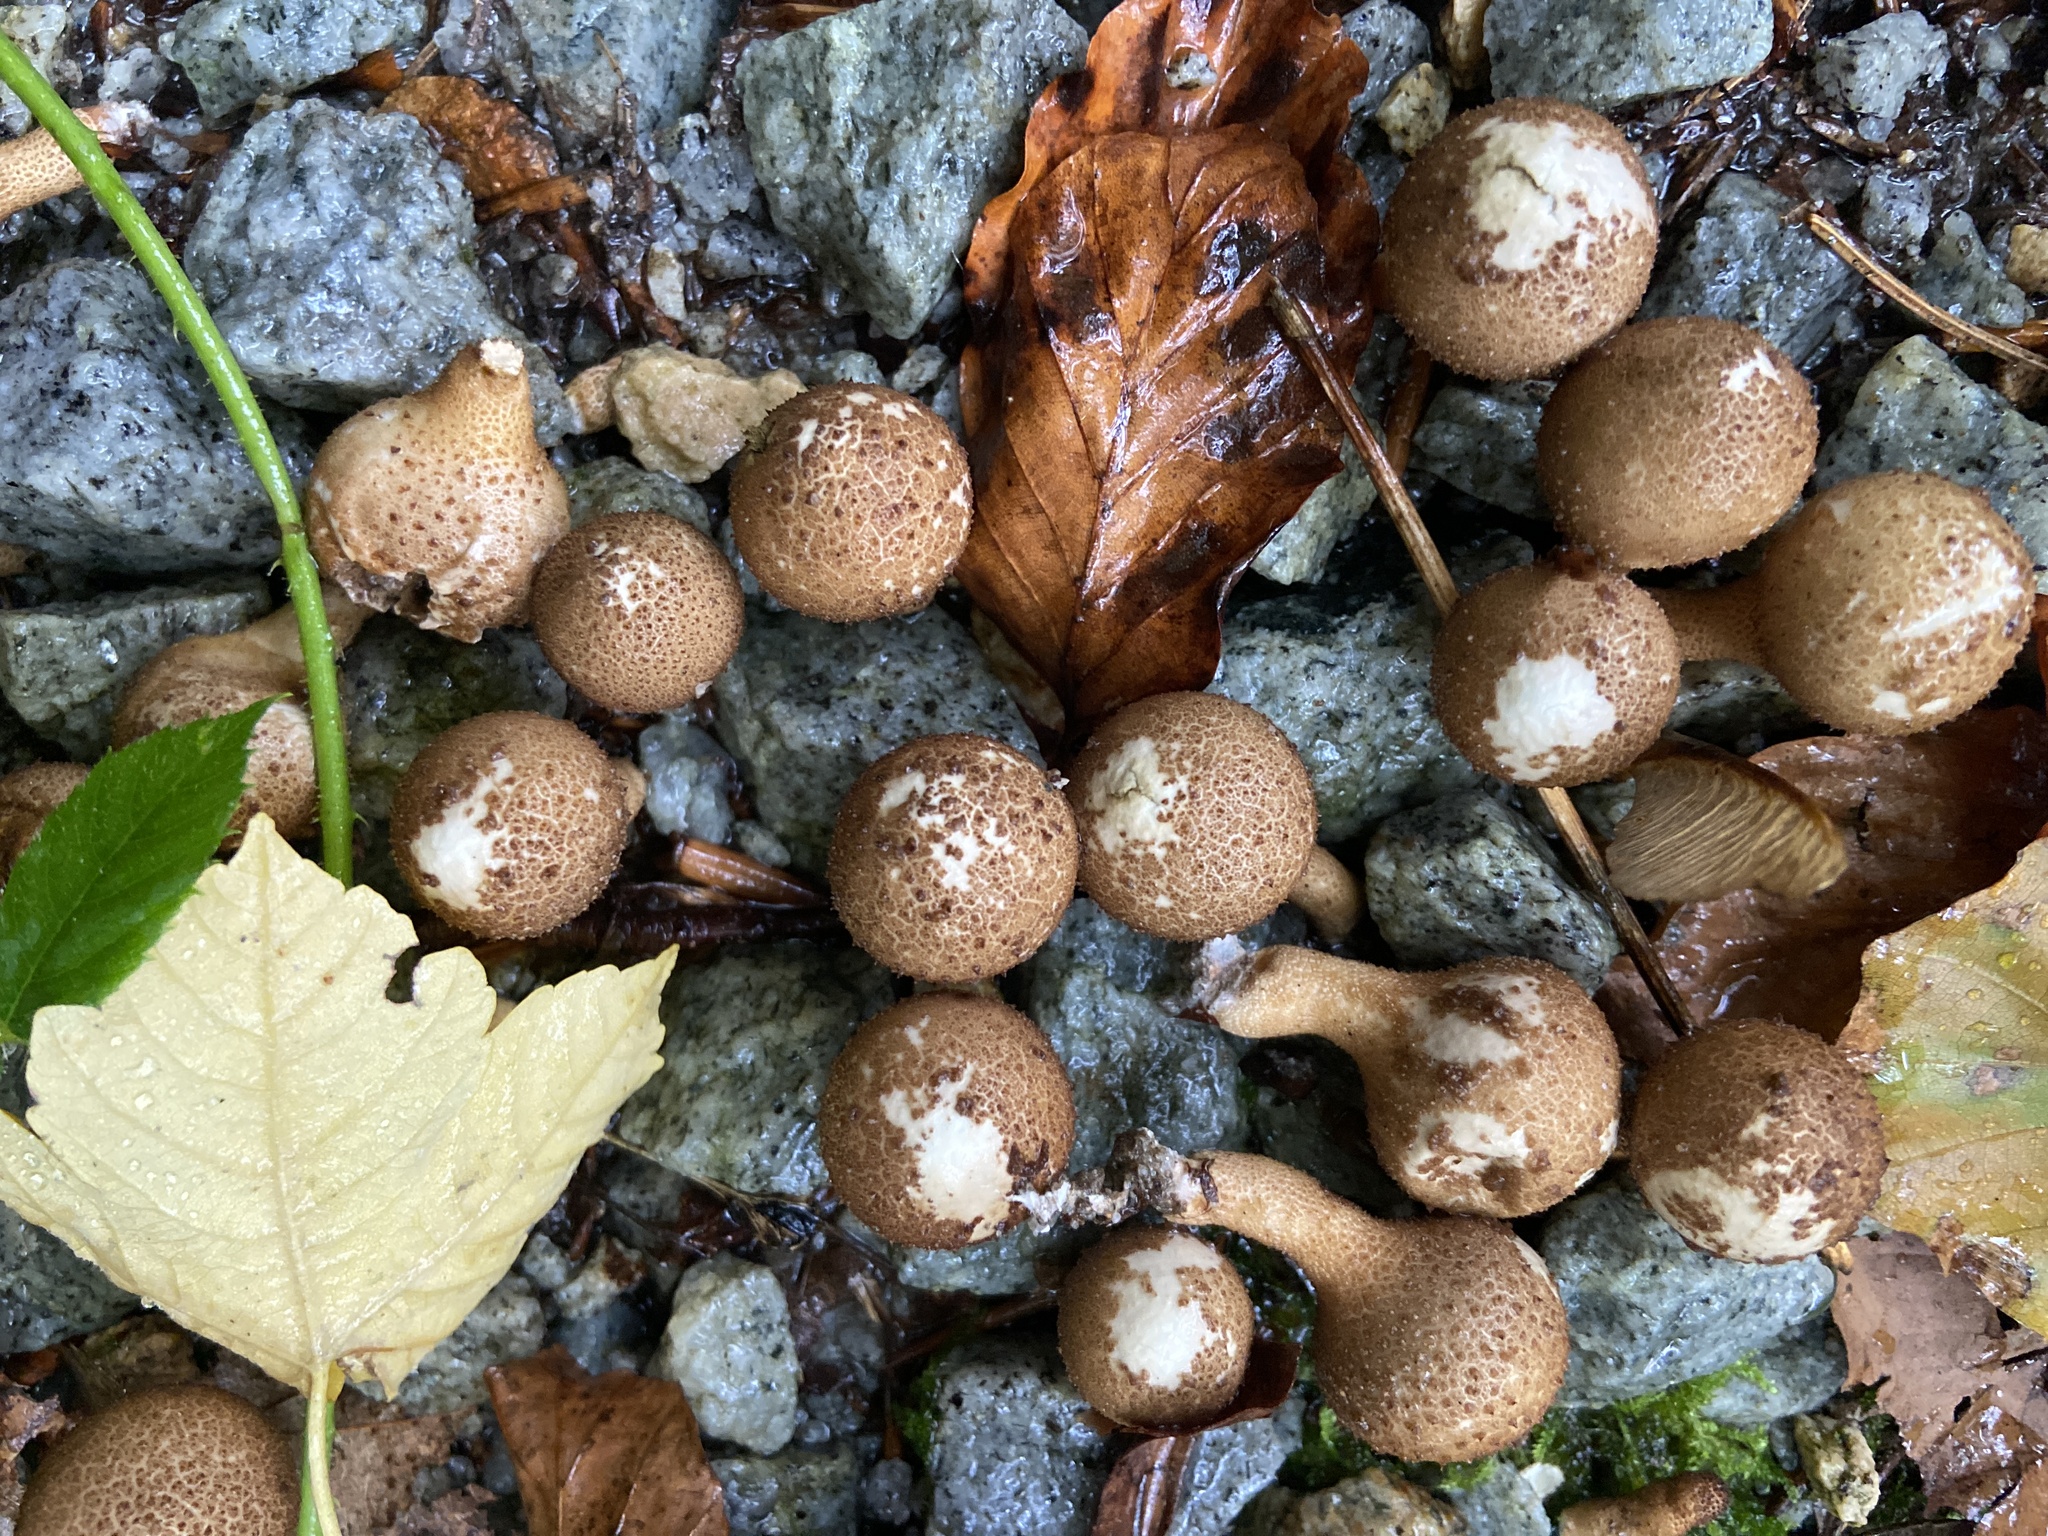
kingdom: Fungi
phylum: Basidiomycota
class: Agaricomycetes
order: Agaricales
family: Lycoperdaceae
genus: Apioperdon
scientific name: Apioperdon pyriforme
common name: Pear-shaped puffball
